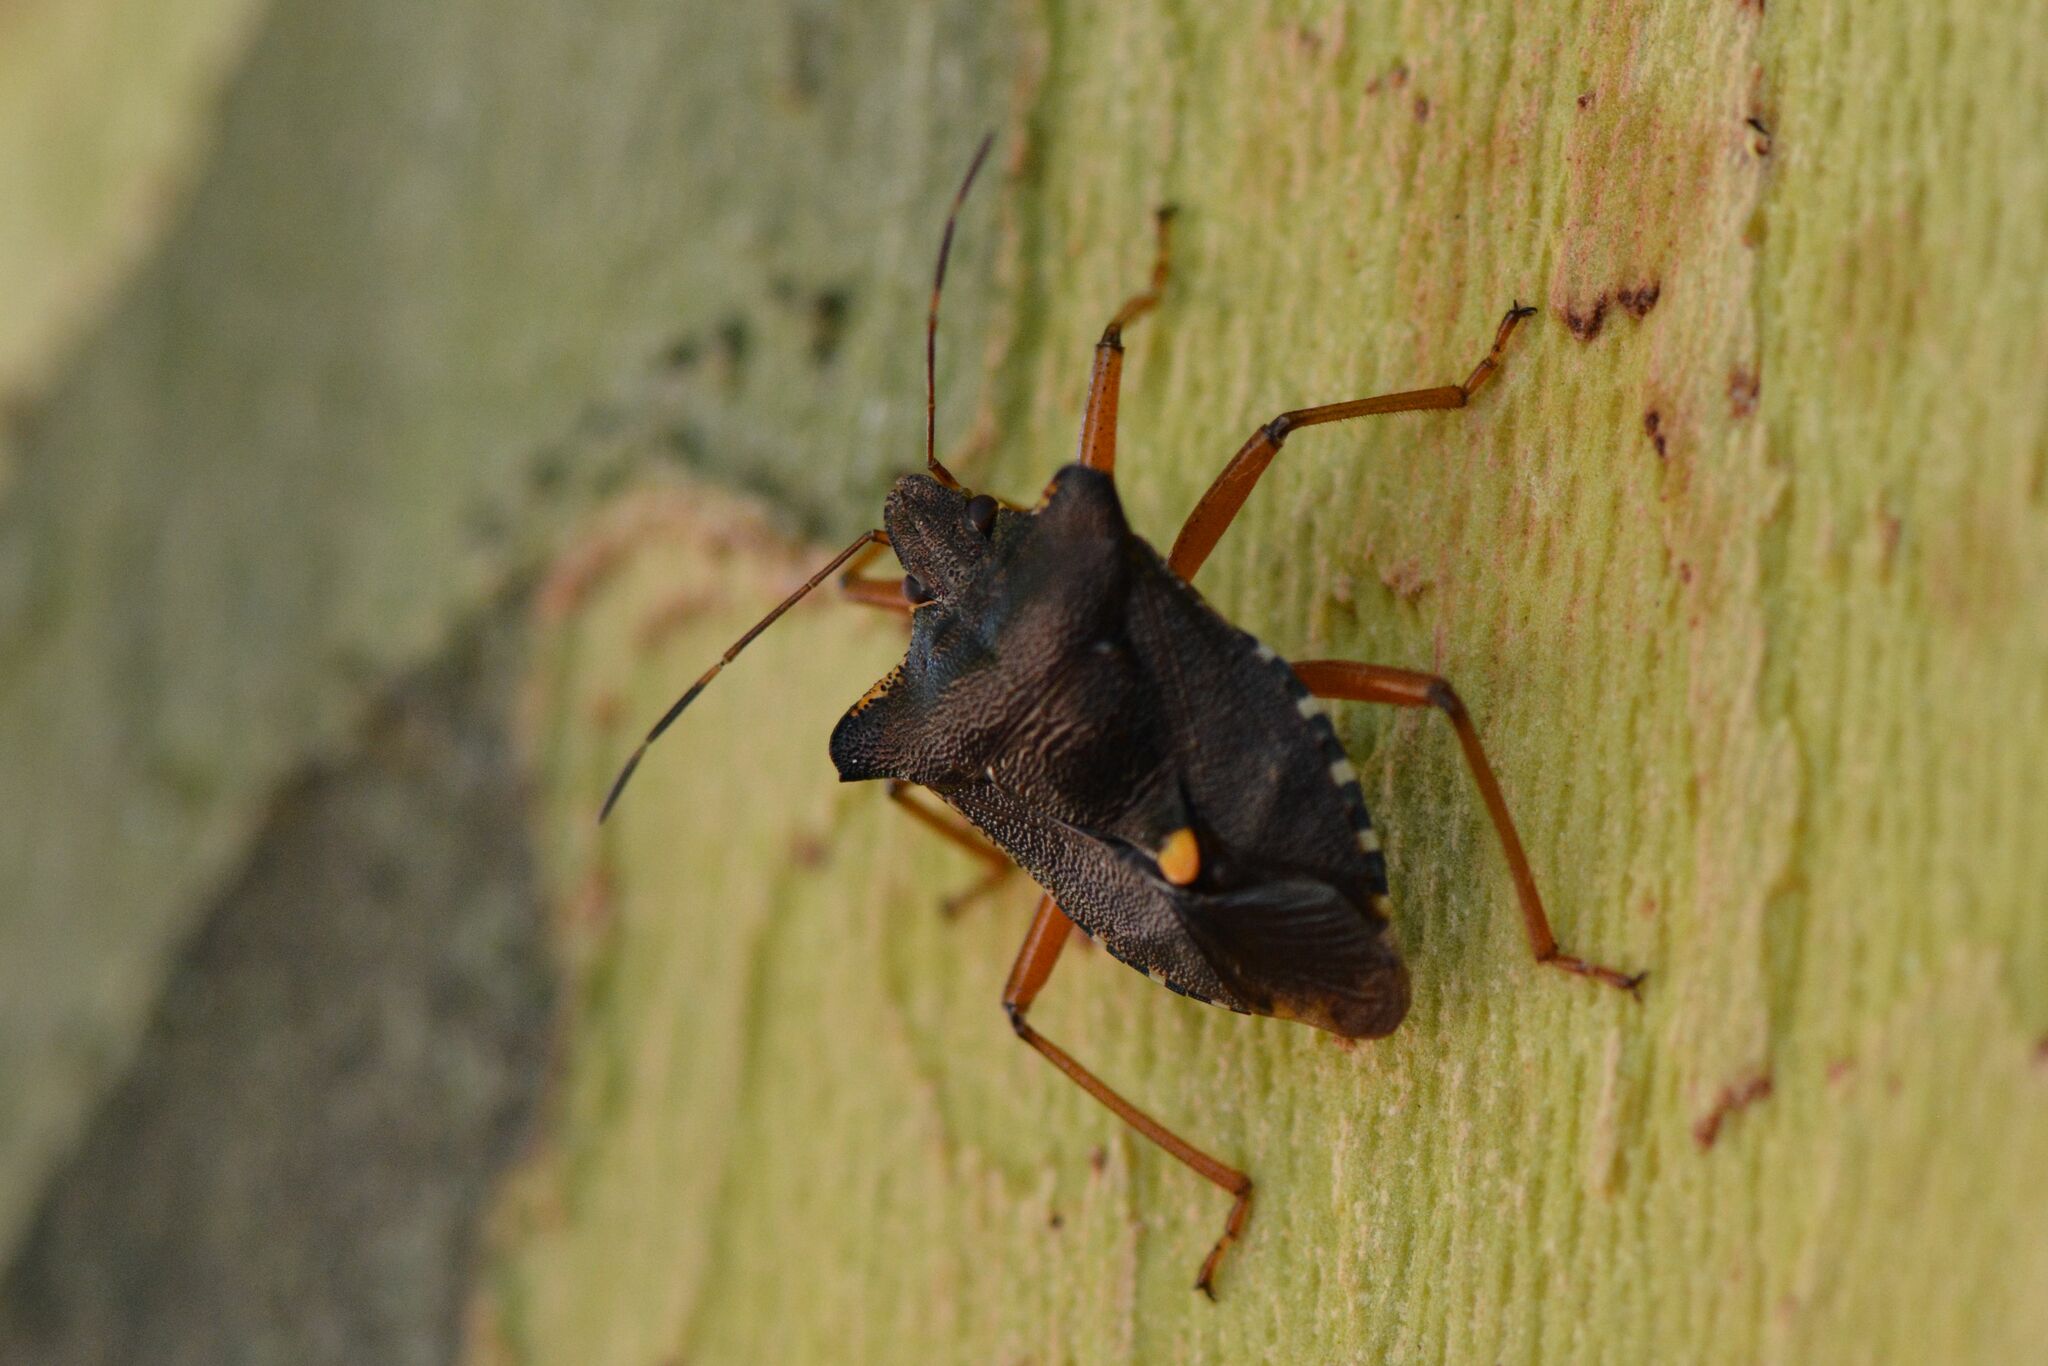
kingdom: Animalia
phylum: Arthropoda
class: Insecta
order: Hemiptera
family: Pentatomidae
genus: Pentatoma
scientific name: Pentatoma rufipes
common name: Forest bug
